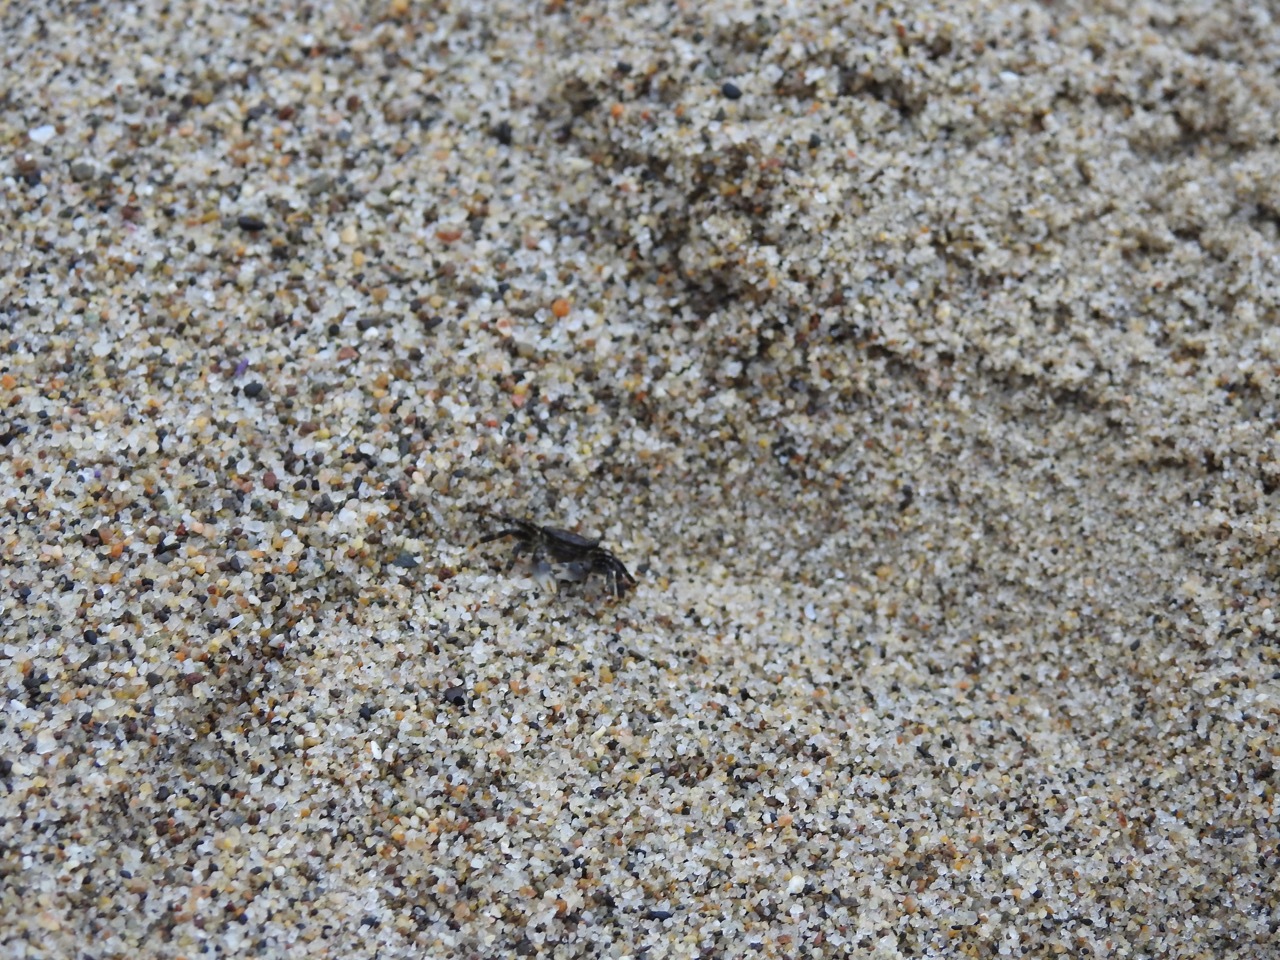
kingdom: Animalia
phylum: Arthropoda
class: Malacostraca
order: Decapoda
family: Grapsidae
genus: Pachygrapsus
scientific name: Pachygrapsus crassipes
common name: Striped shore crab
